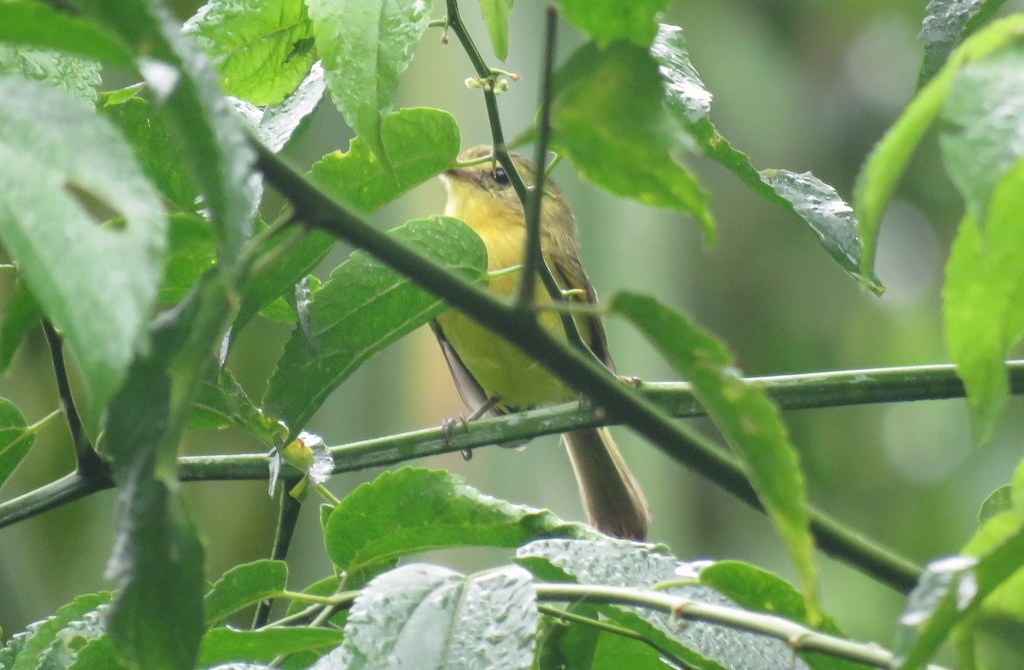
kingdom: Animalia
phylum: Chordata
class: Aves
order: Passeriformes
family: Tyrannidae
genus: Capsiempis
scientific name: Capsiempis flaveola
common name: Yellow tyrannulet
